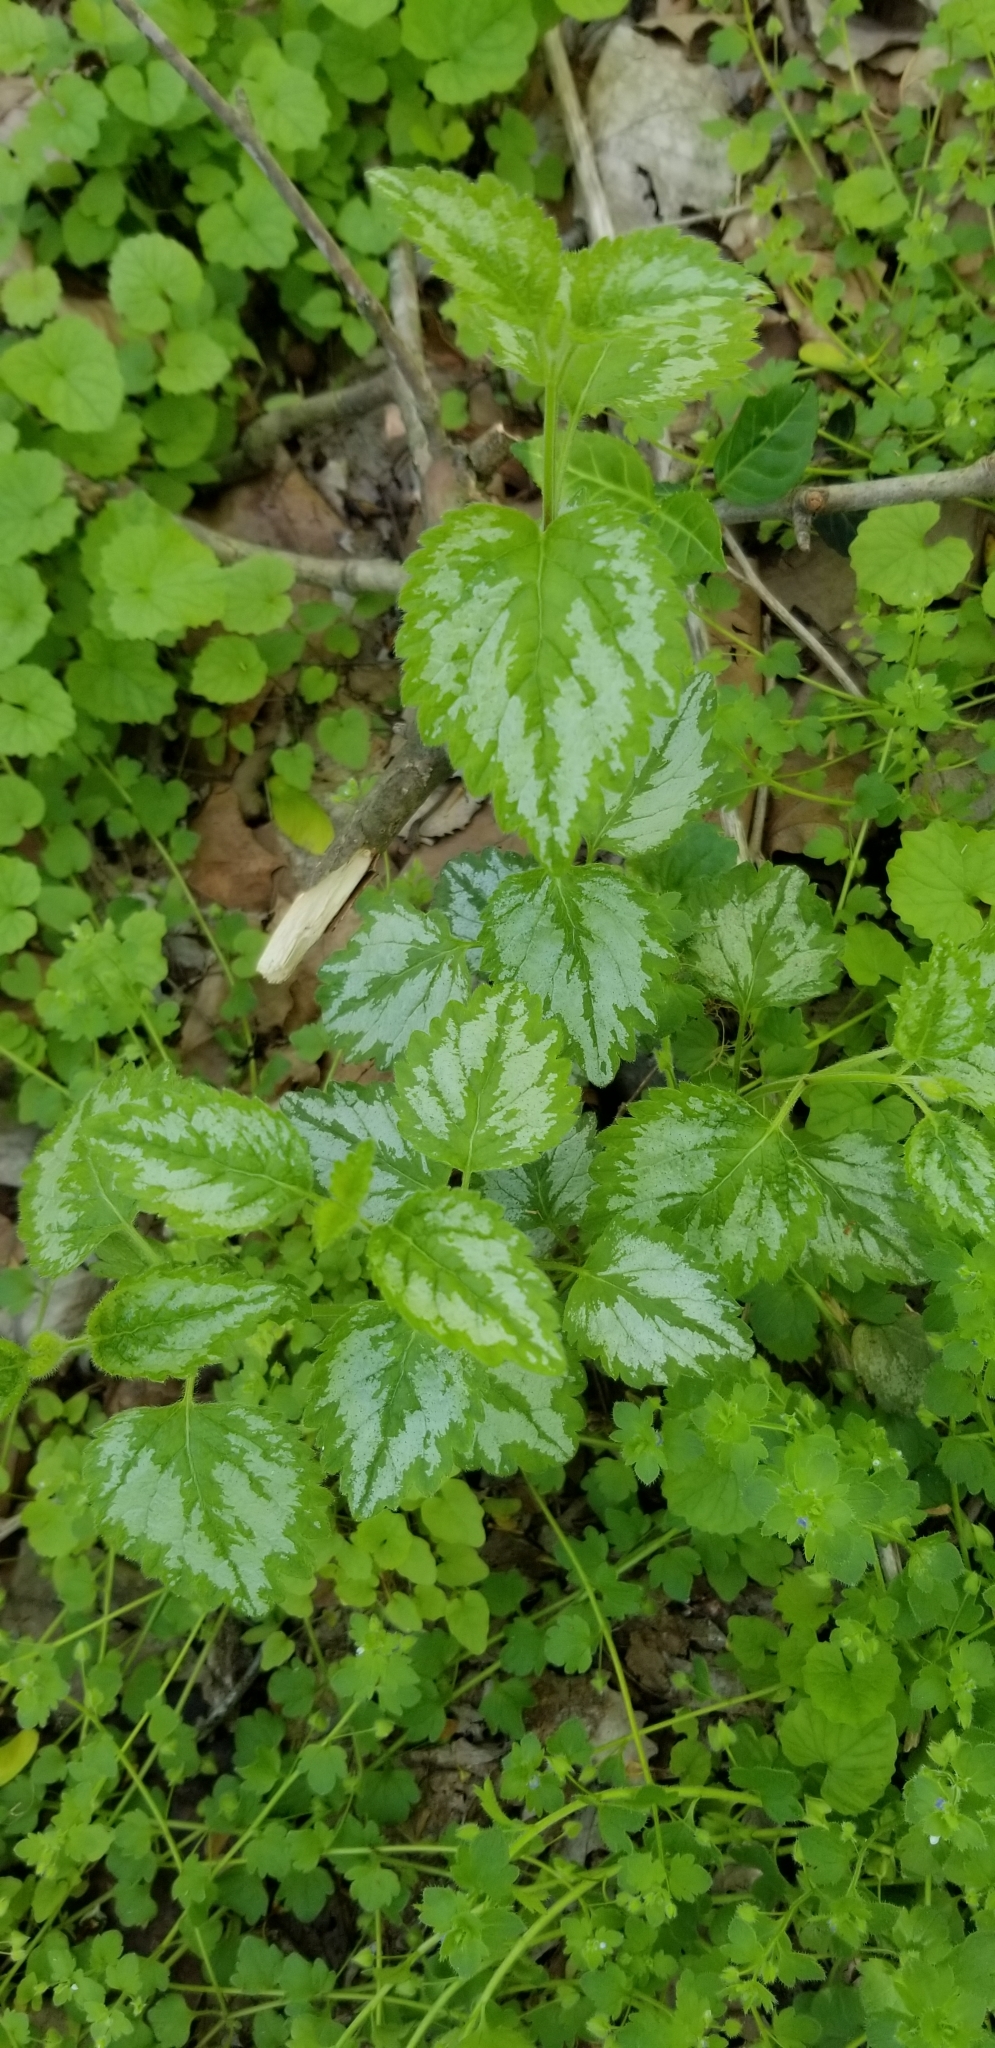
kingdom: Plantae
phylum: Tracheophyta
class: Magnoliopsida
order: Lamiales
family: Lamiaceae
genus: Lamium
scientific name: Lamium galeobdolon
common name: Yellow archangel
